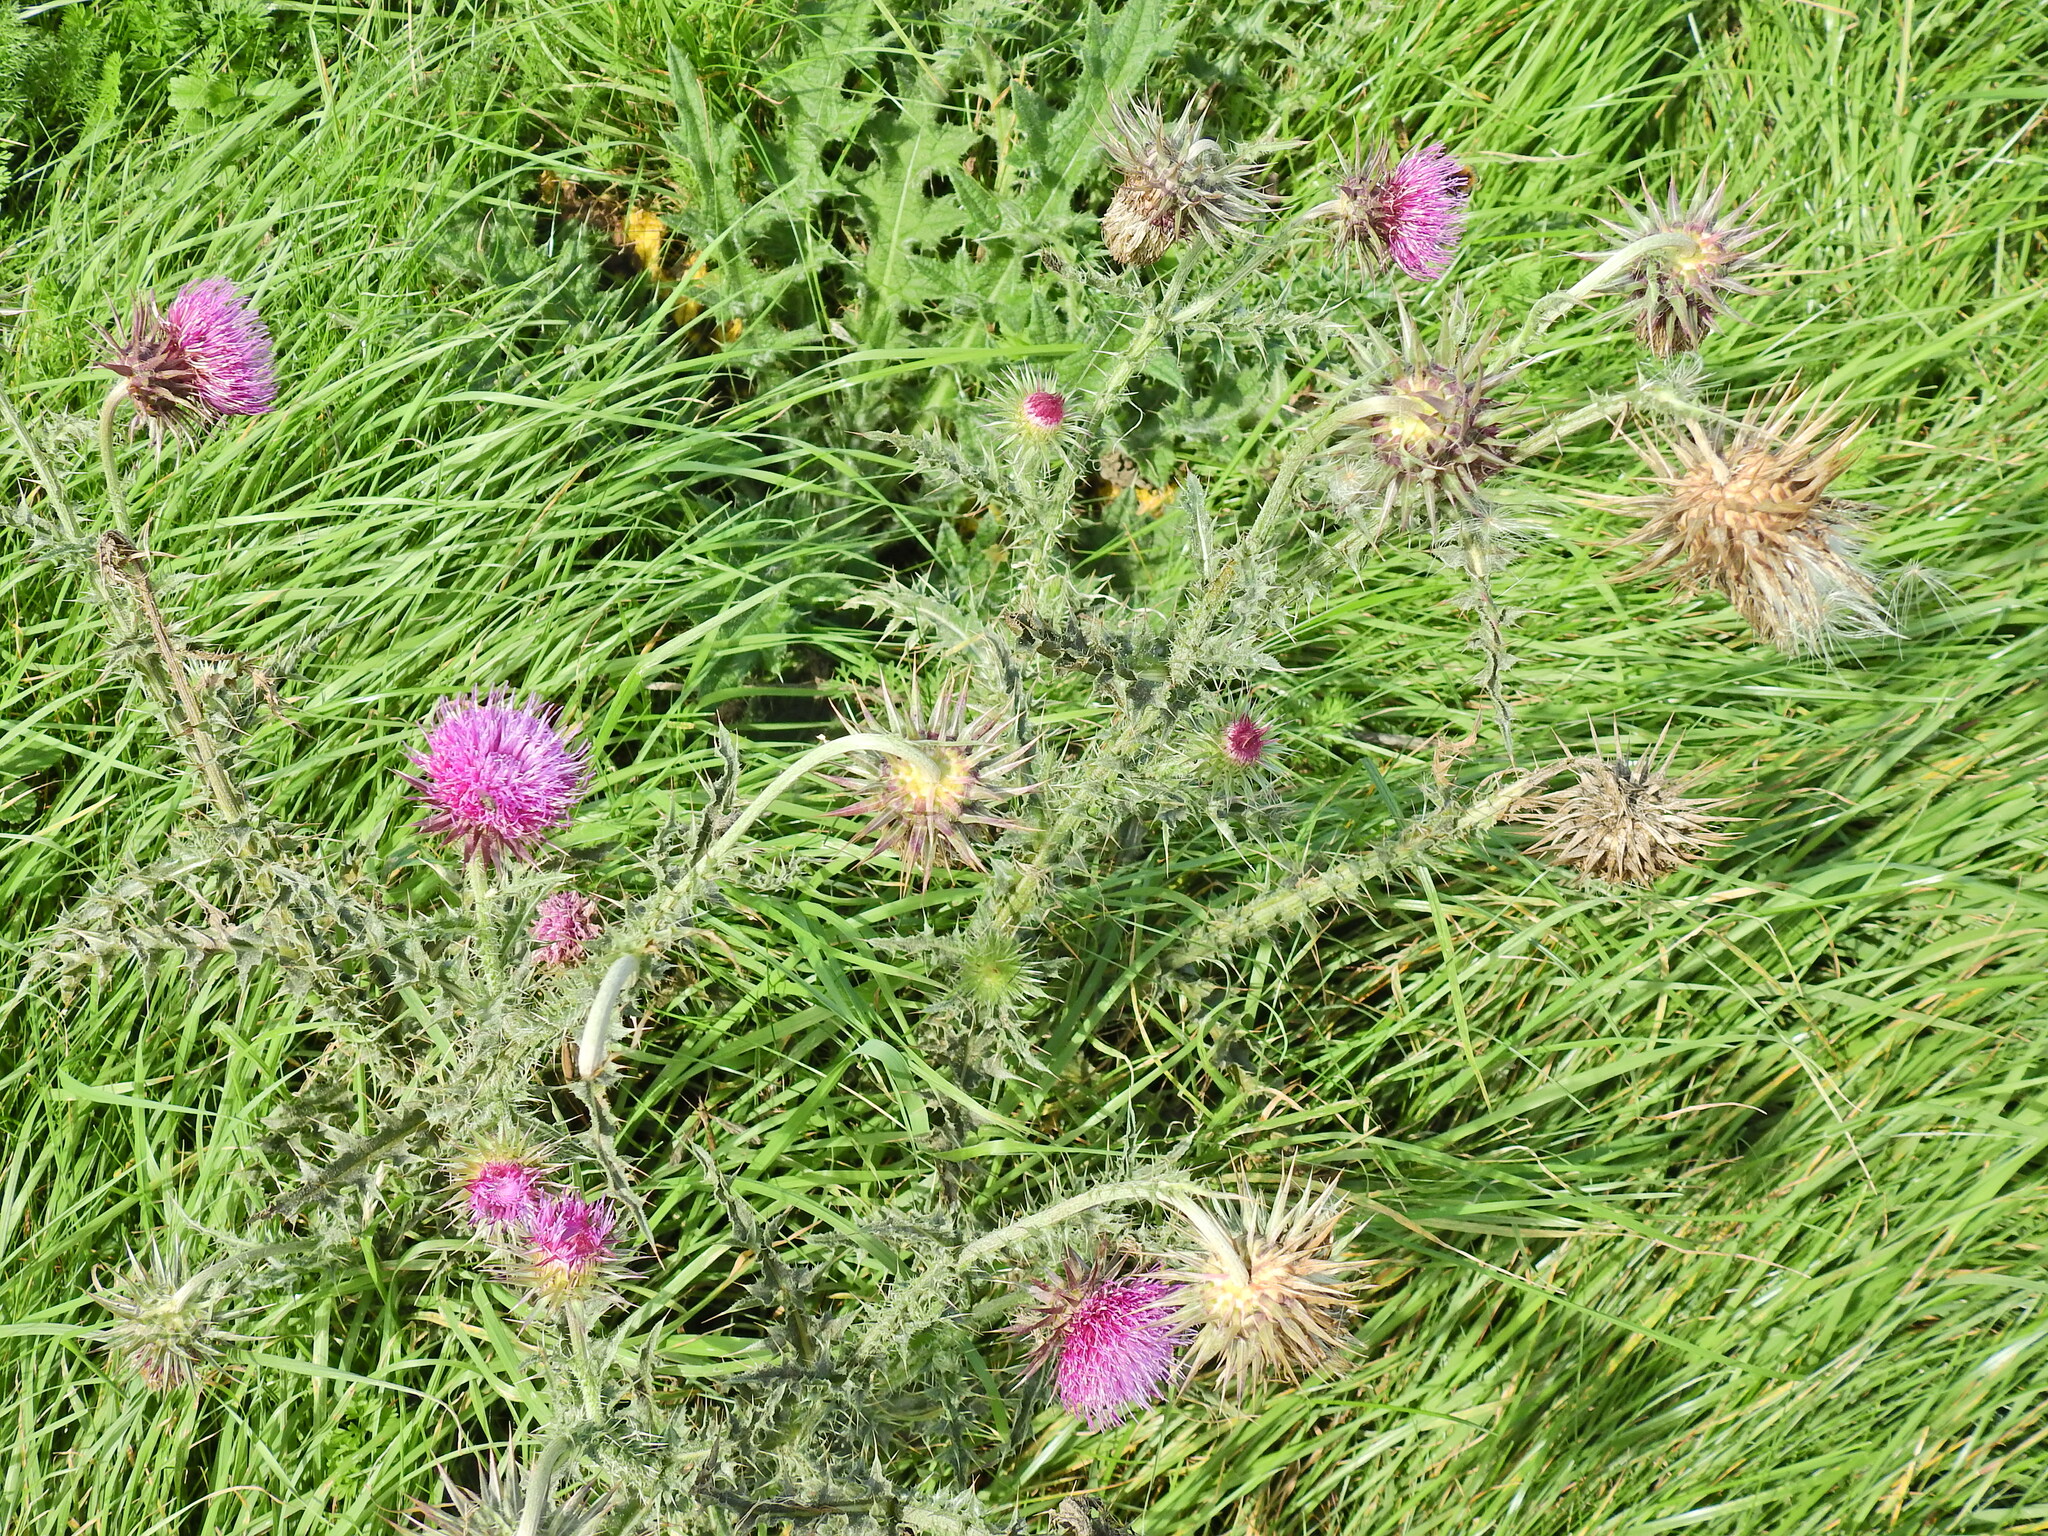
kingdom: Plantae
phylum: Tracheophyta
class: Magnoliopsida
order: Asterales
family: Asteraceae
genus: Carduus
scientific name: Carduus nutans
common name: Musk thistle
